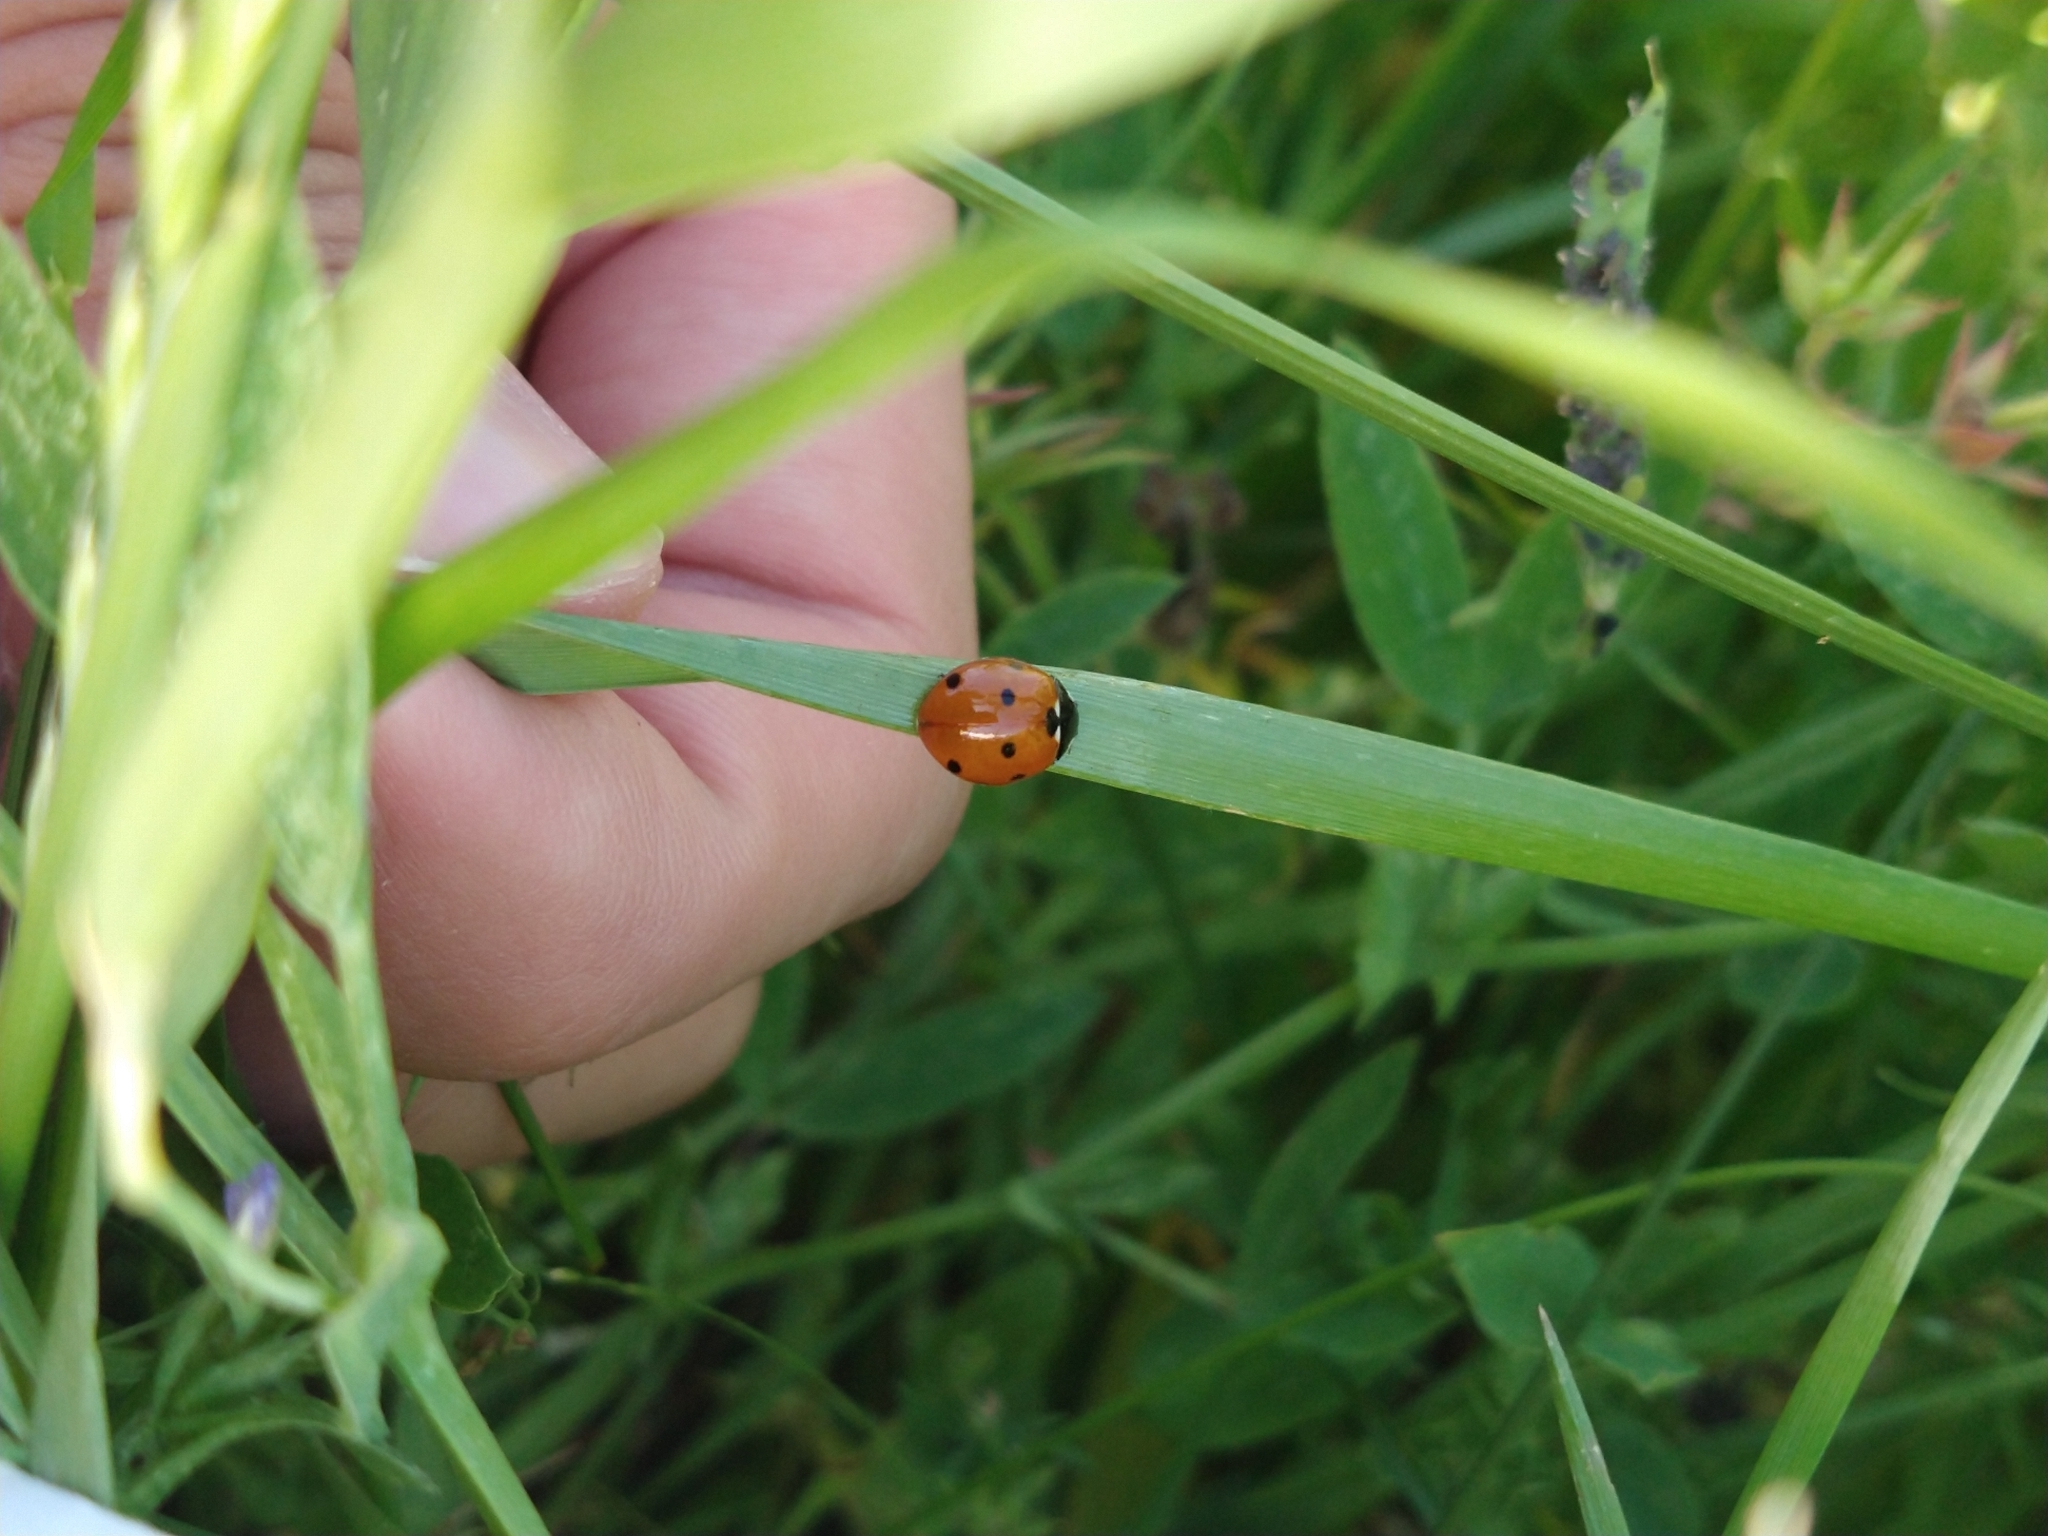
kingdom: Animalia
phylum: Arthropoda
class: Insecta
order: Coleoptera
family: Coccinellidae
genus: Coccinella
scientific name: Coccinella septempunctata
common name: Sevenspotted lady beetle
